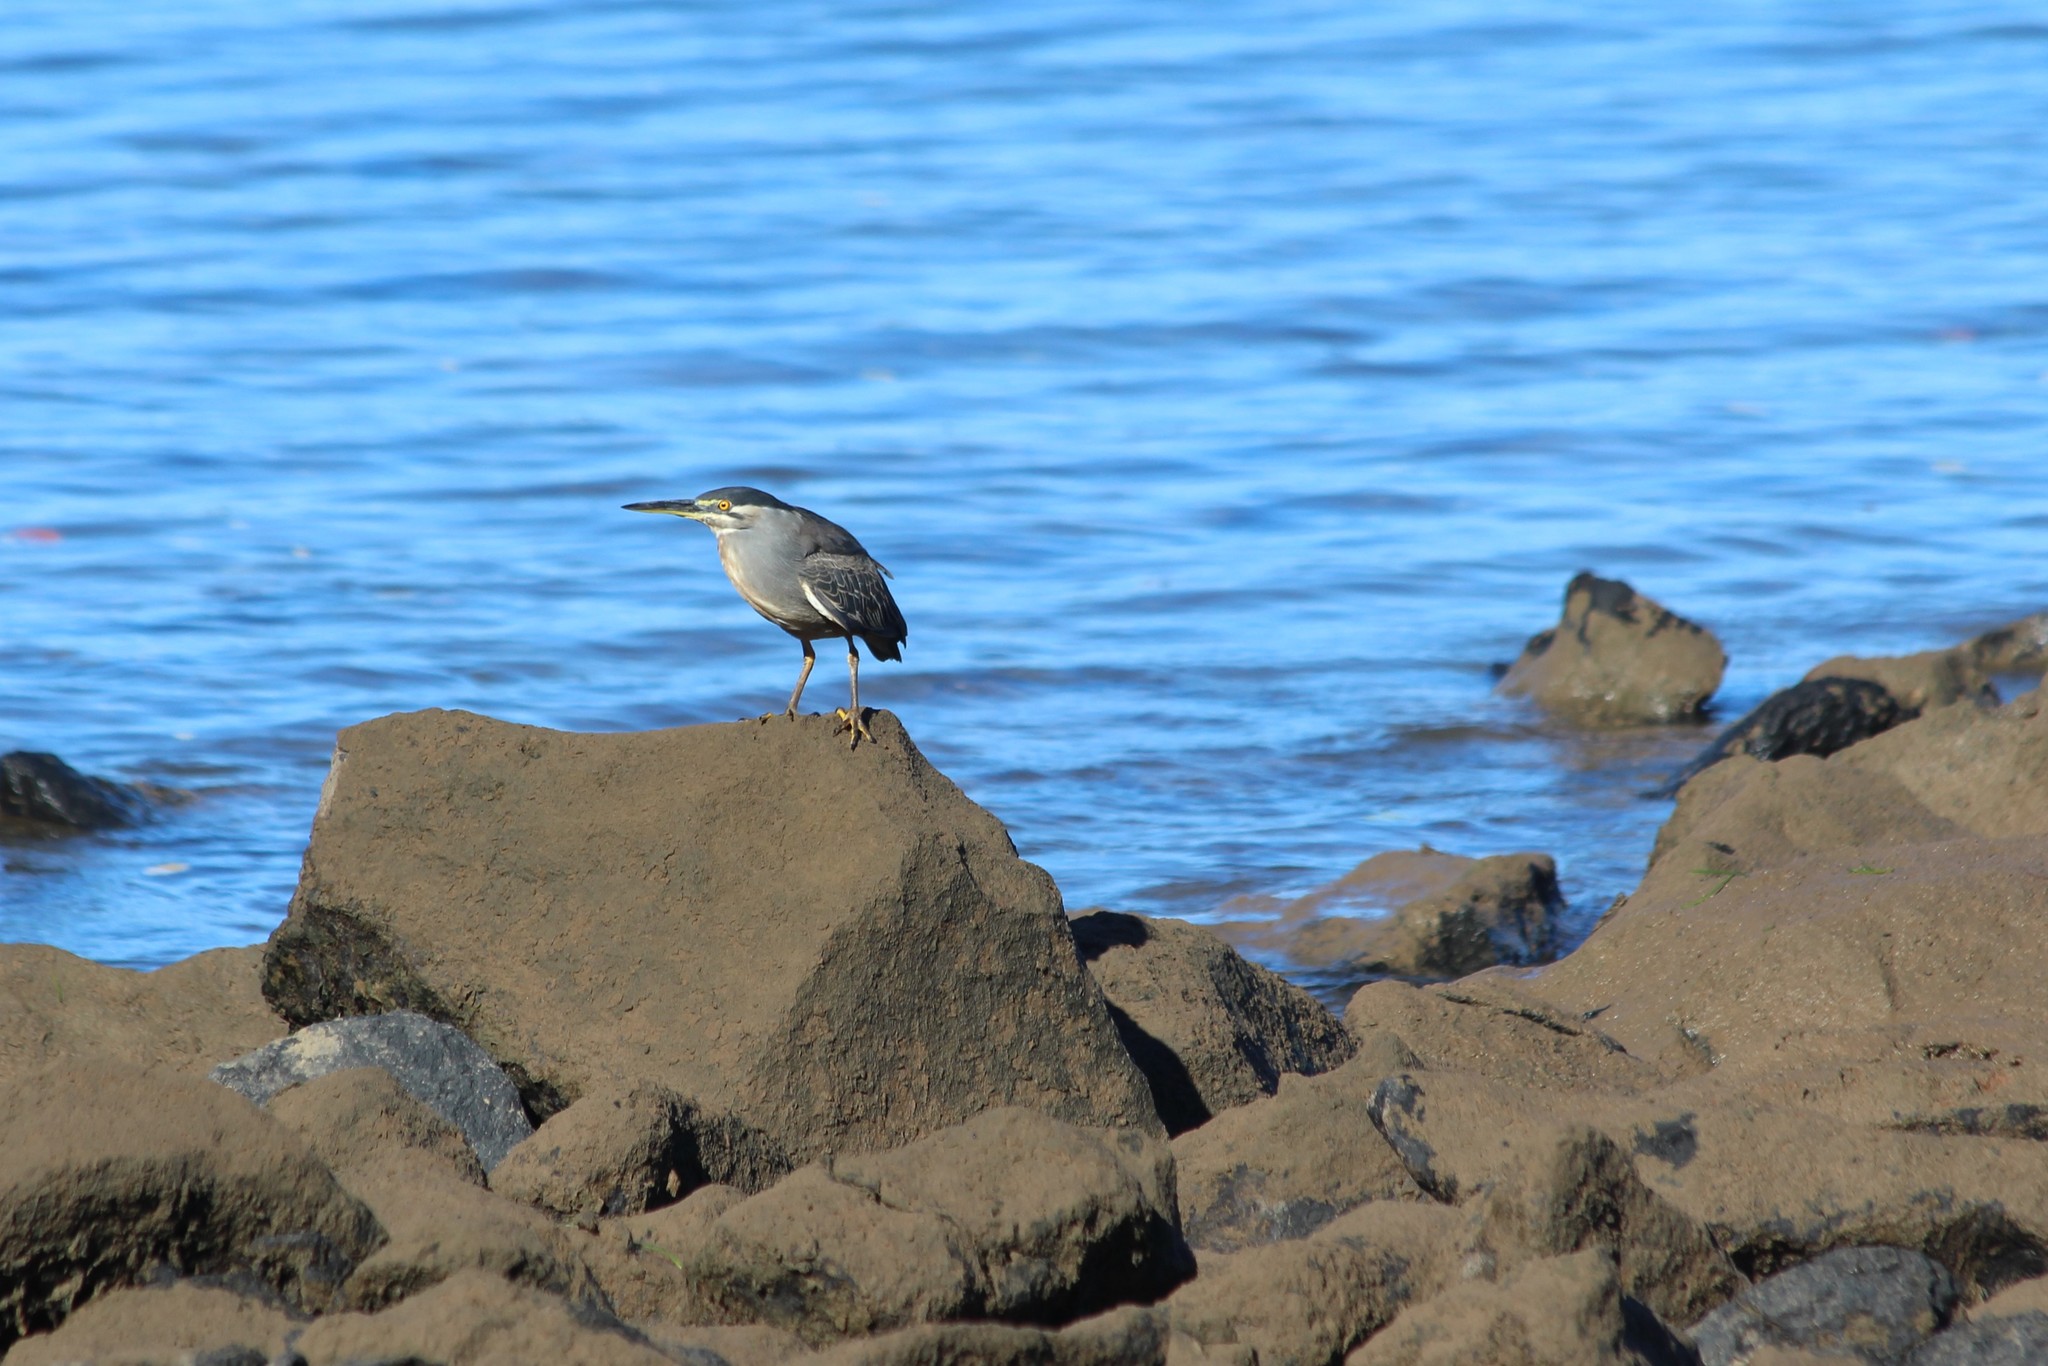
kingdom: Animalia
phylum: Chordata
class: Aves
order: Pelecaniformes
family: Ardeidae
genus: Butorides
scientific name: Butorides striata
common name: Striated heron
